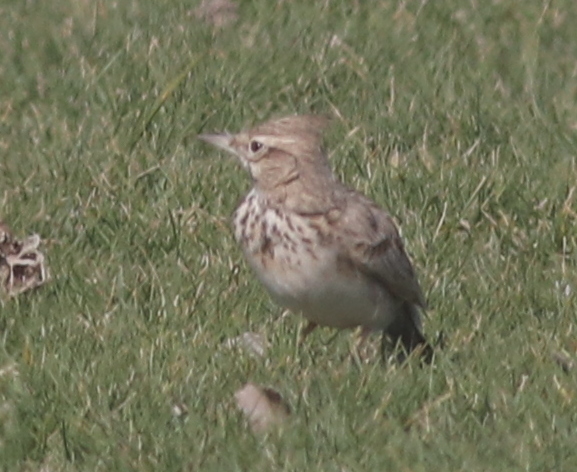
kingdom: Animalia
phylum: Chordata
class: Aves
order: Passeriformes
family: Alaudidae
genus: Galerida
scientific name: Galerida cristata
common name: Crested lark
